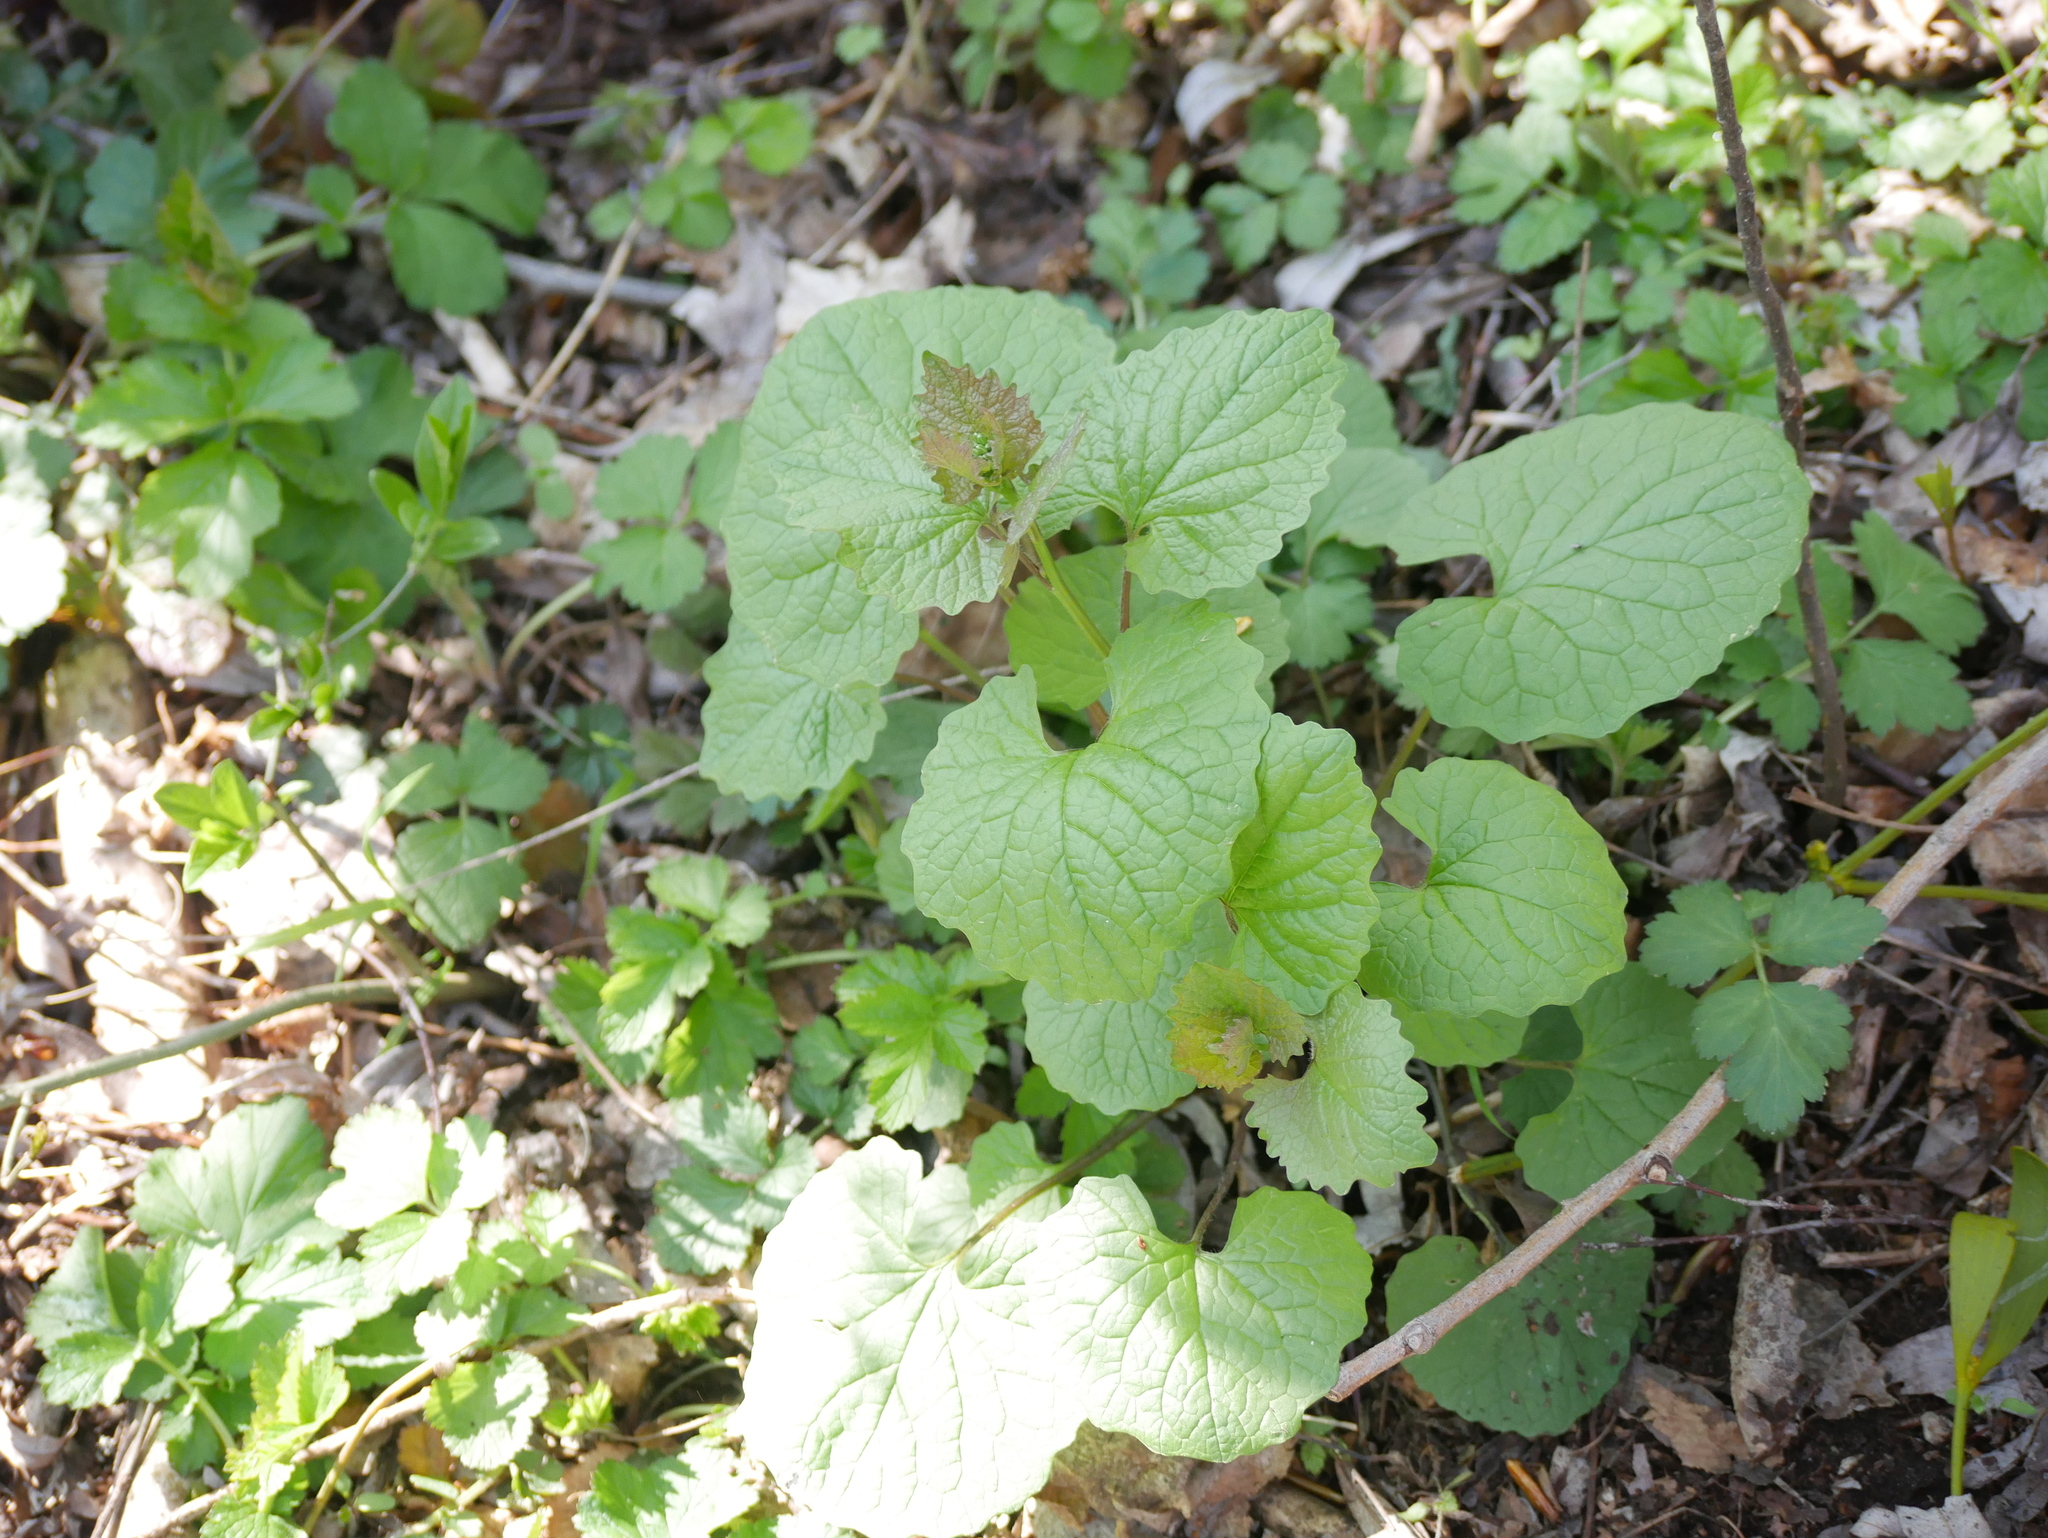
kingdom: Plantae
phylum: Tracheophyta
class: Magnoliopsida
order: Brassicales
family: Brassicaceae
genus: Alliaria
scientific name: Alliaria petiolata
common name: Garlic mustard
